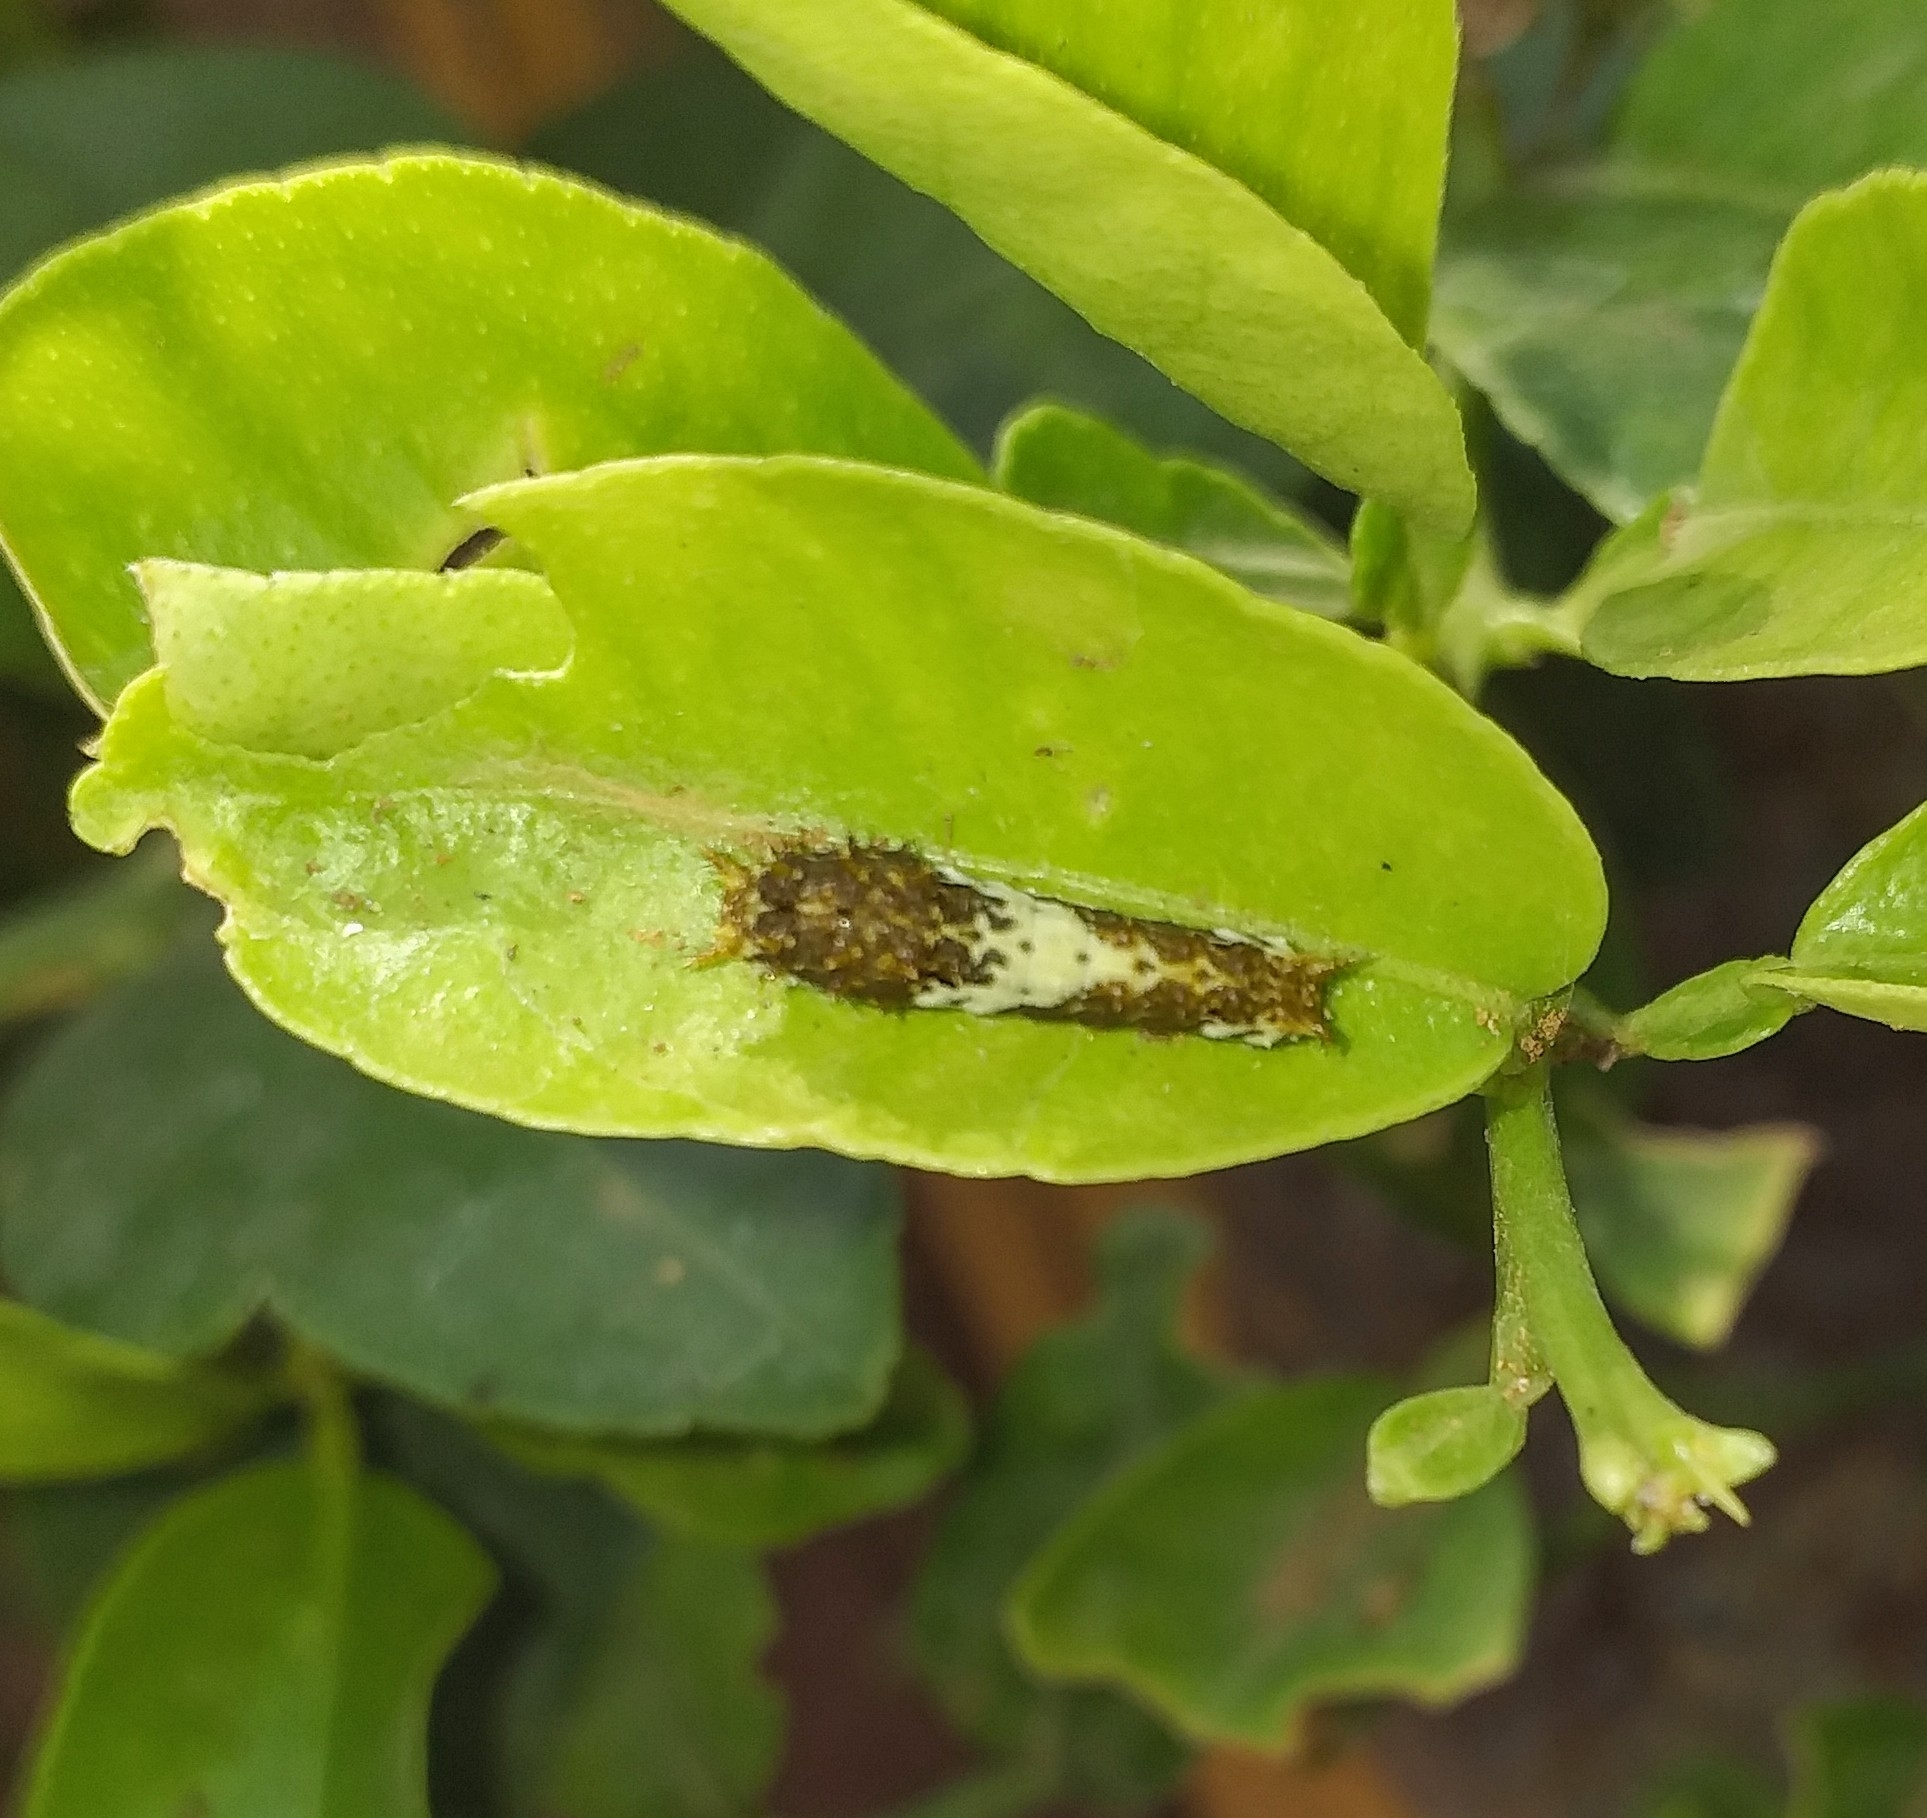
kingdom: Animalia
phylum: Arthropoda
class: Insecta
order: Lepidoptera
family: Papilionidae
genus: Papilio
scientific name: Papilio demoleus
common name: Lime butterfly
